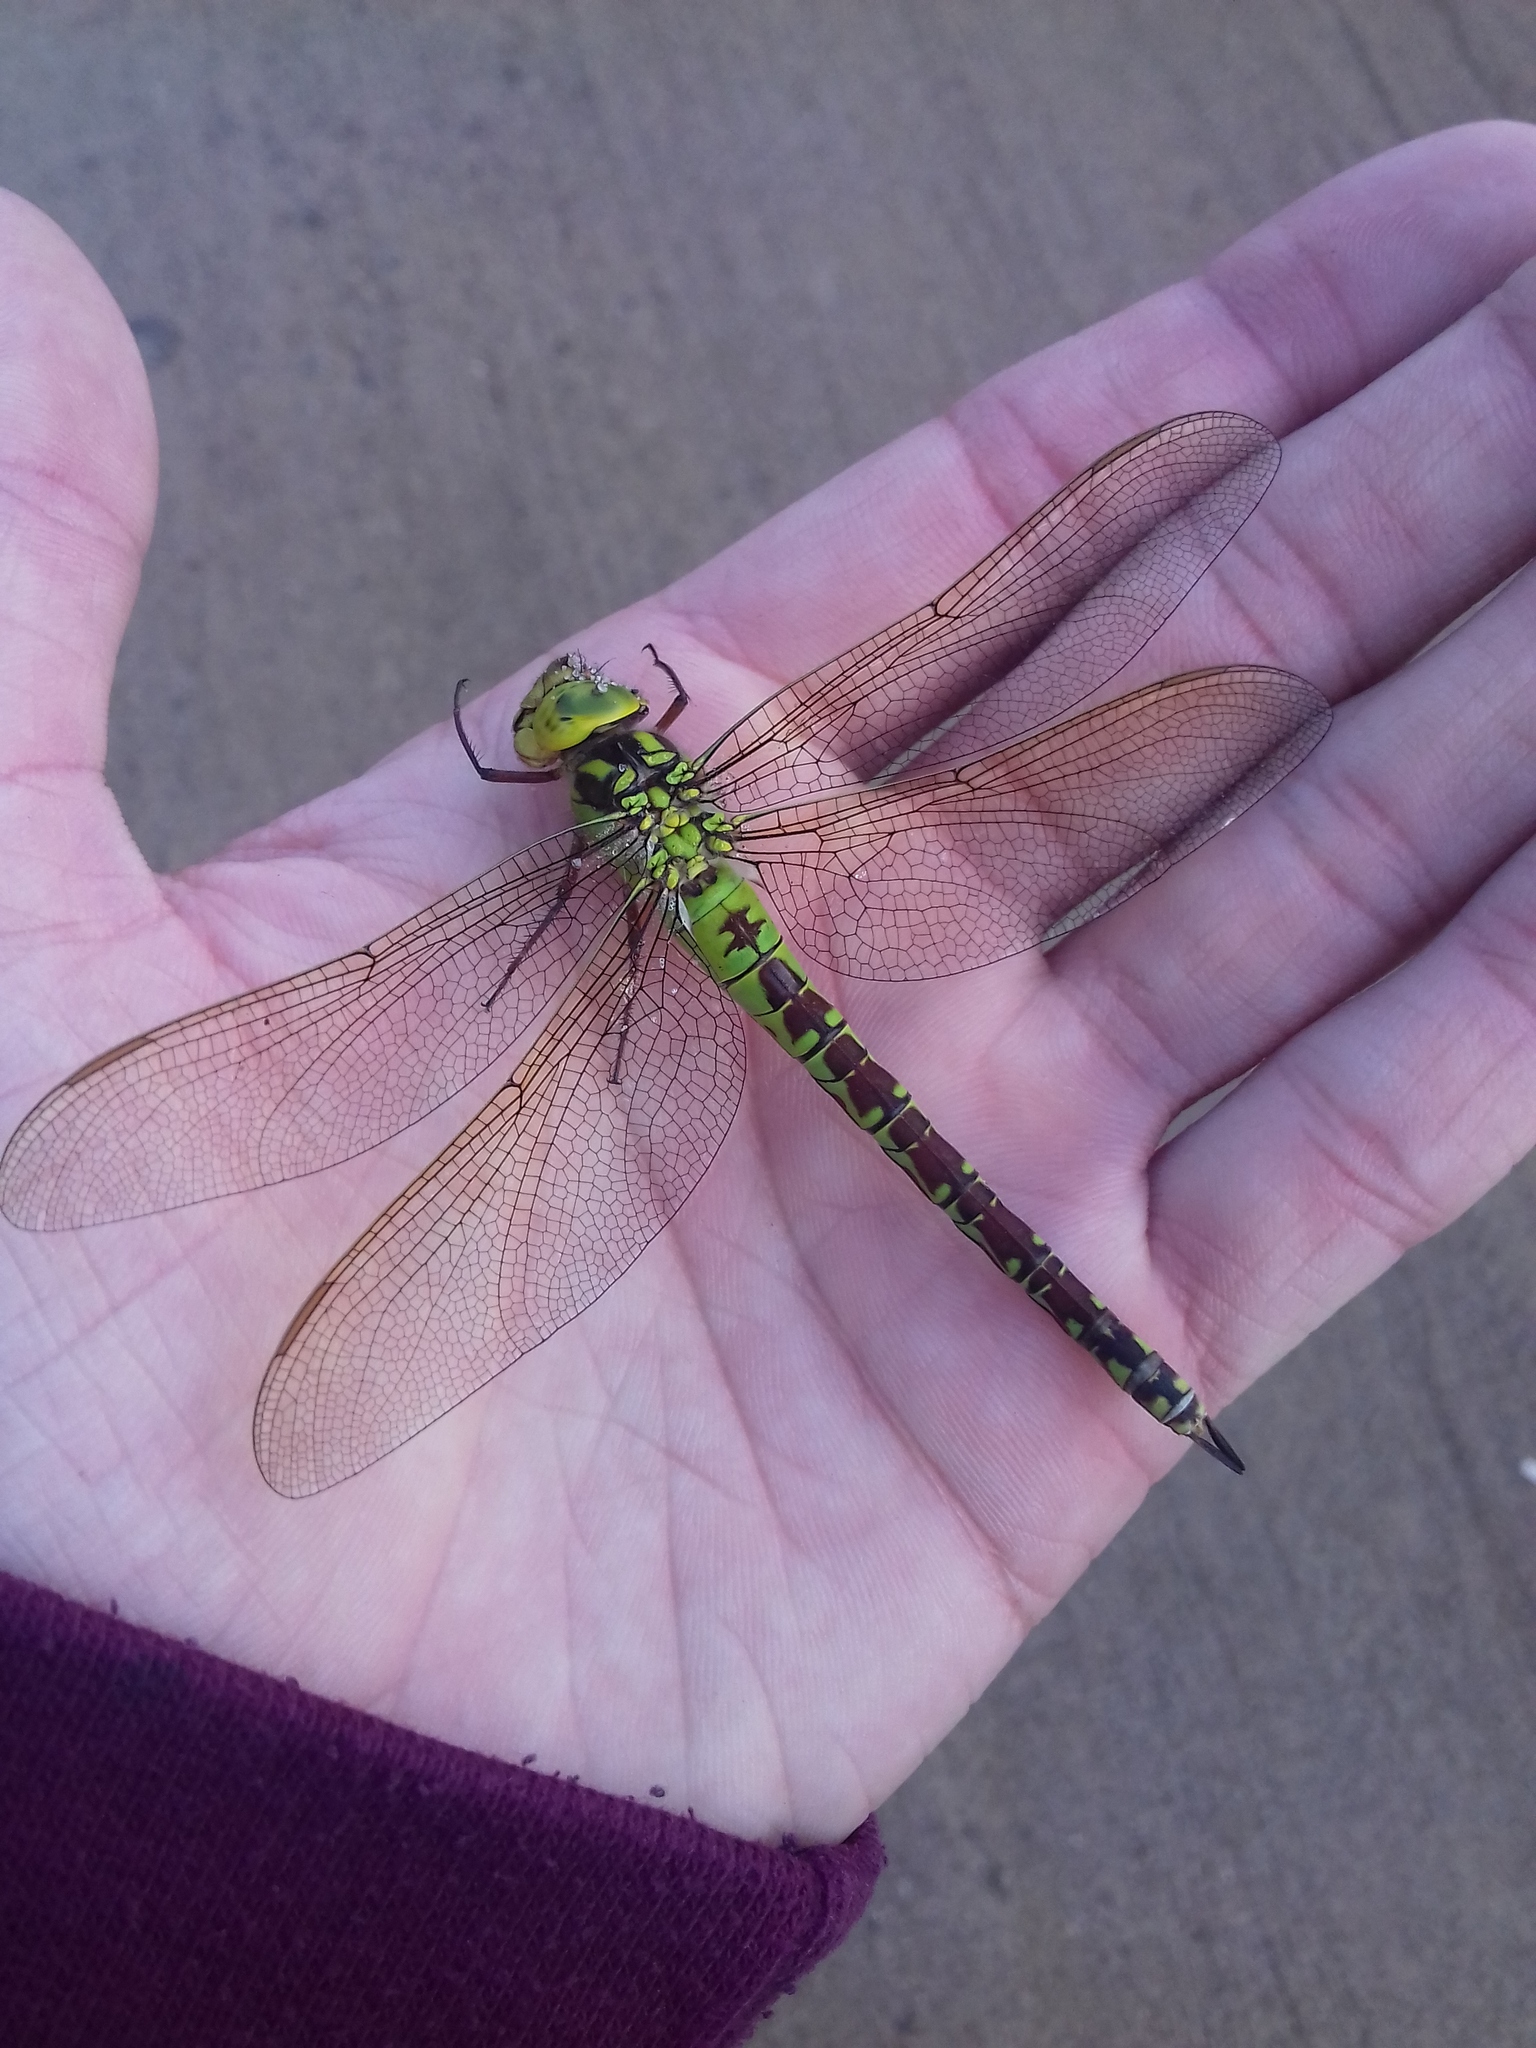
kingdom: Animalia
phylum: Arthropoda
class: Insecta
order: Odonata
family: Aeshnidae
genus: Aeshna
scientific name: Aeshna viridis
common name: Green hawker
